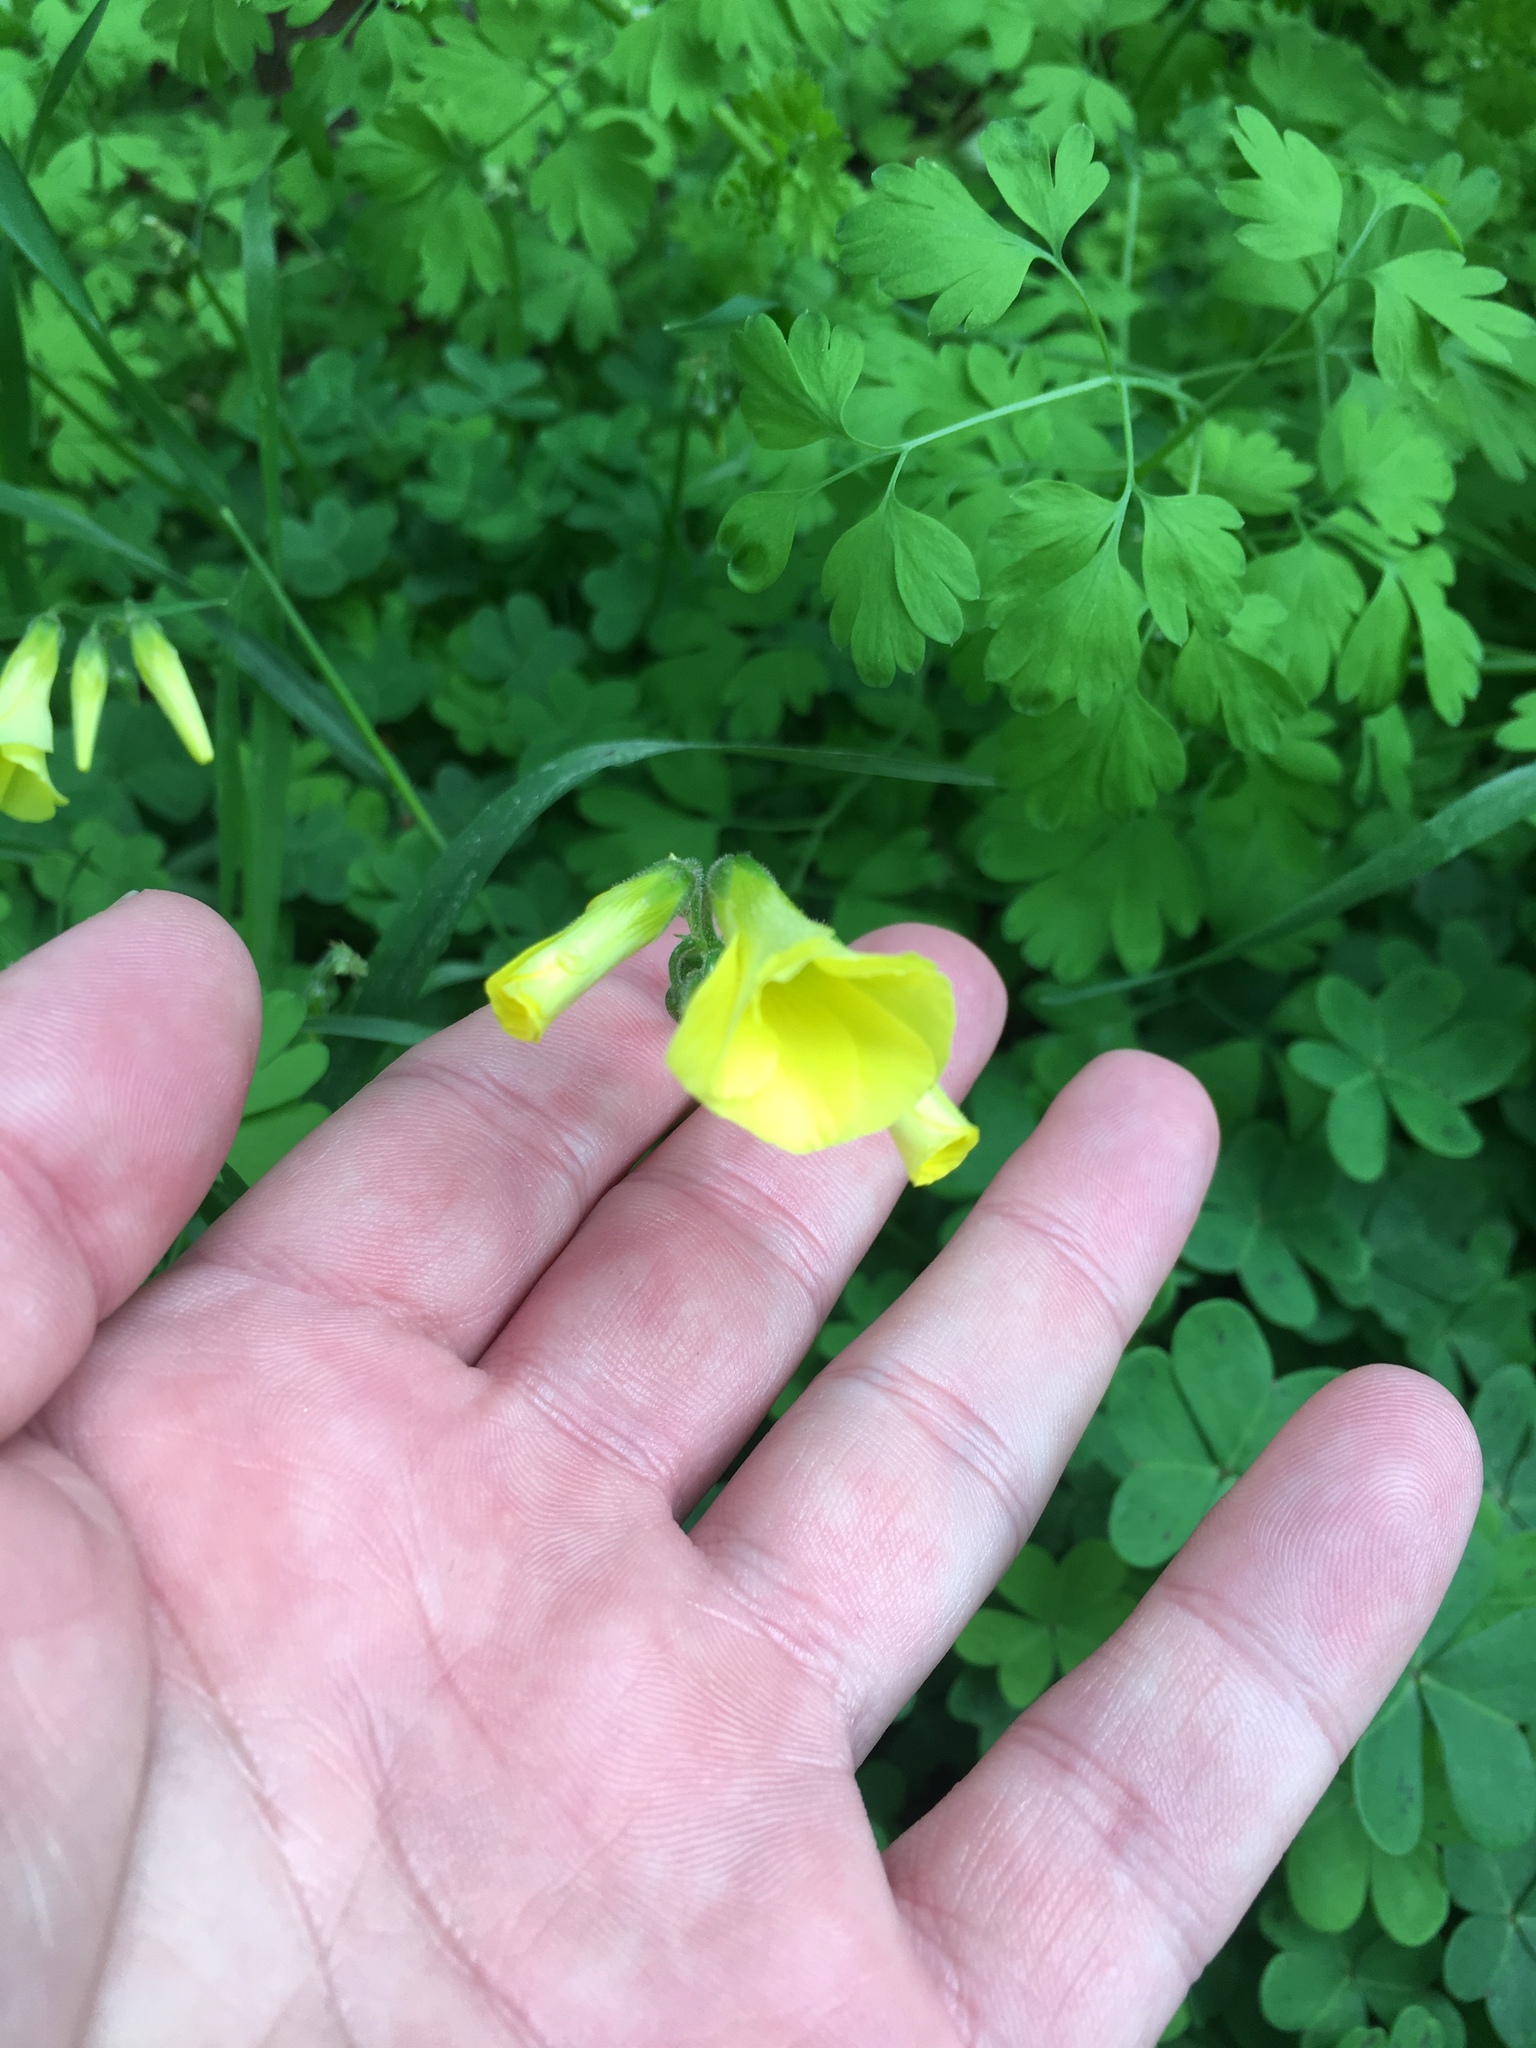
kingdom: Plantae
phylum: Tracheophyta
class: Magnoliopsida
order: Oxalidales
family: Oxalidaceae
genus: Oxalis
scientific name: Oxalis pes-caprae
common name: Bermuda-buttercup
